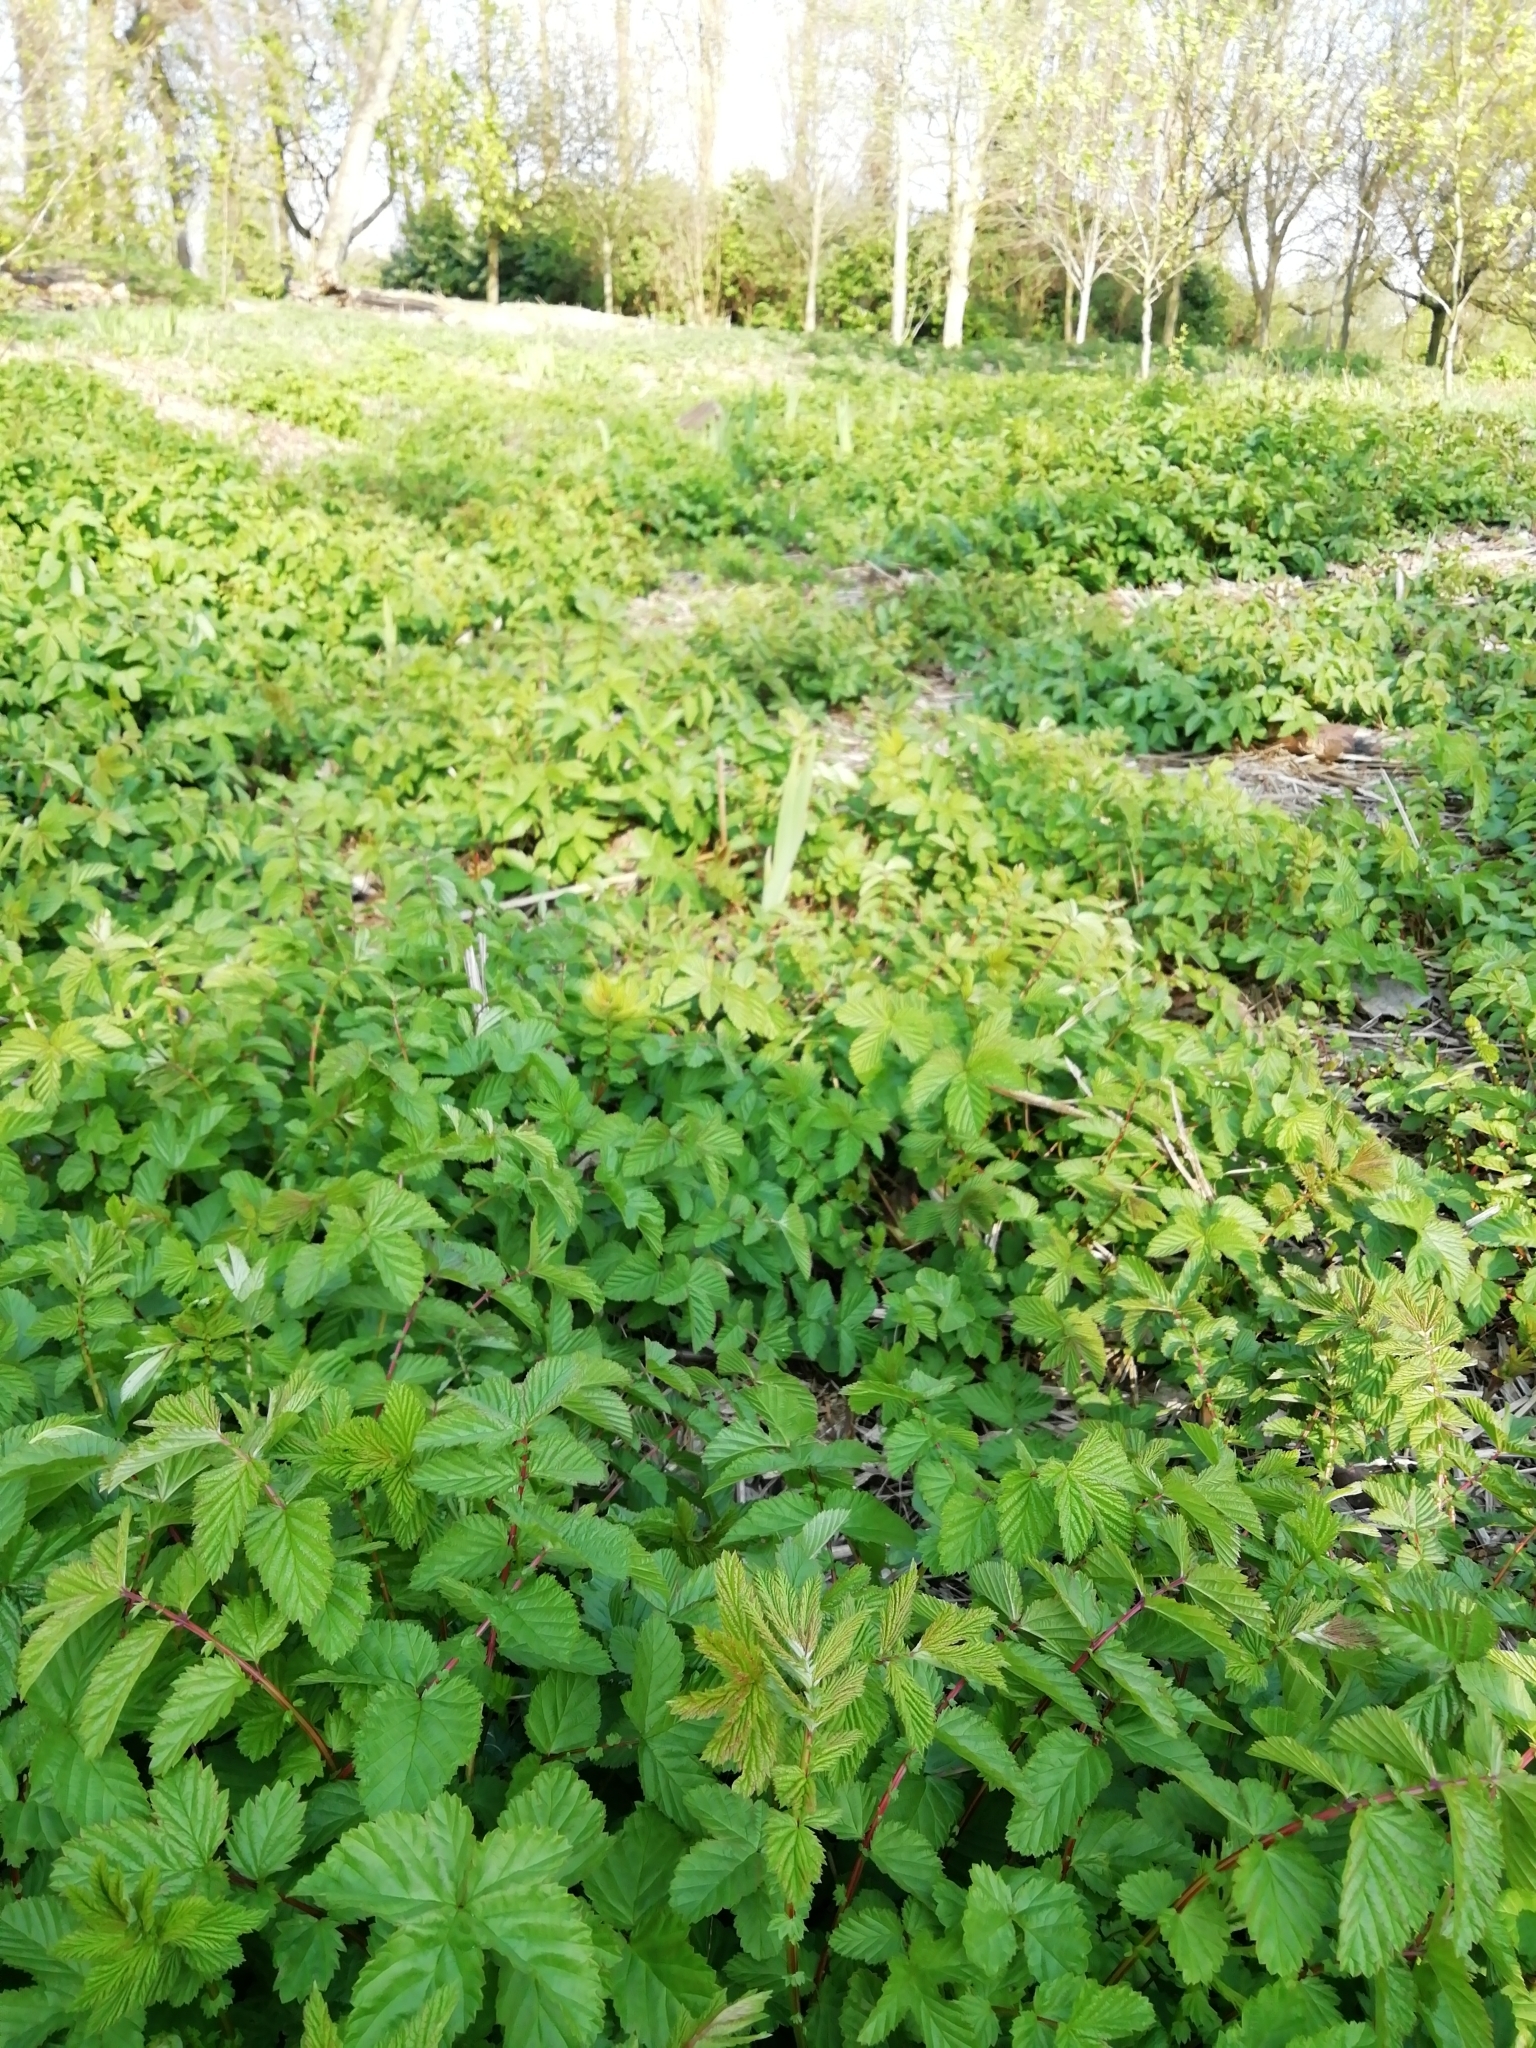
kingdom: Plantae
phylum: Tracheophyta
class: Magnoliopsida
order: Rosales
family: Rosaceae
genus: Filipendula
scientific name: Filipendula ulmaria
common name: Meadowsweet
